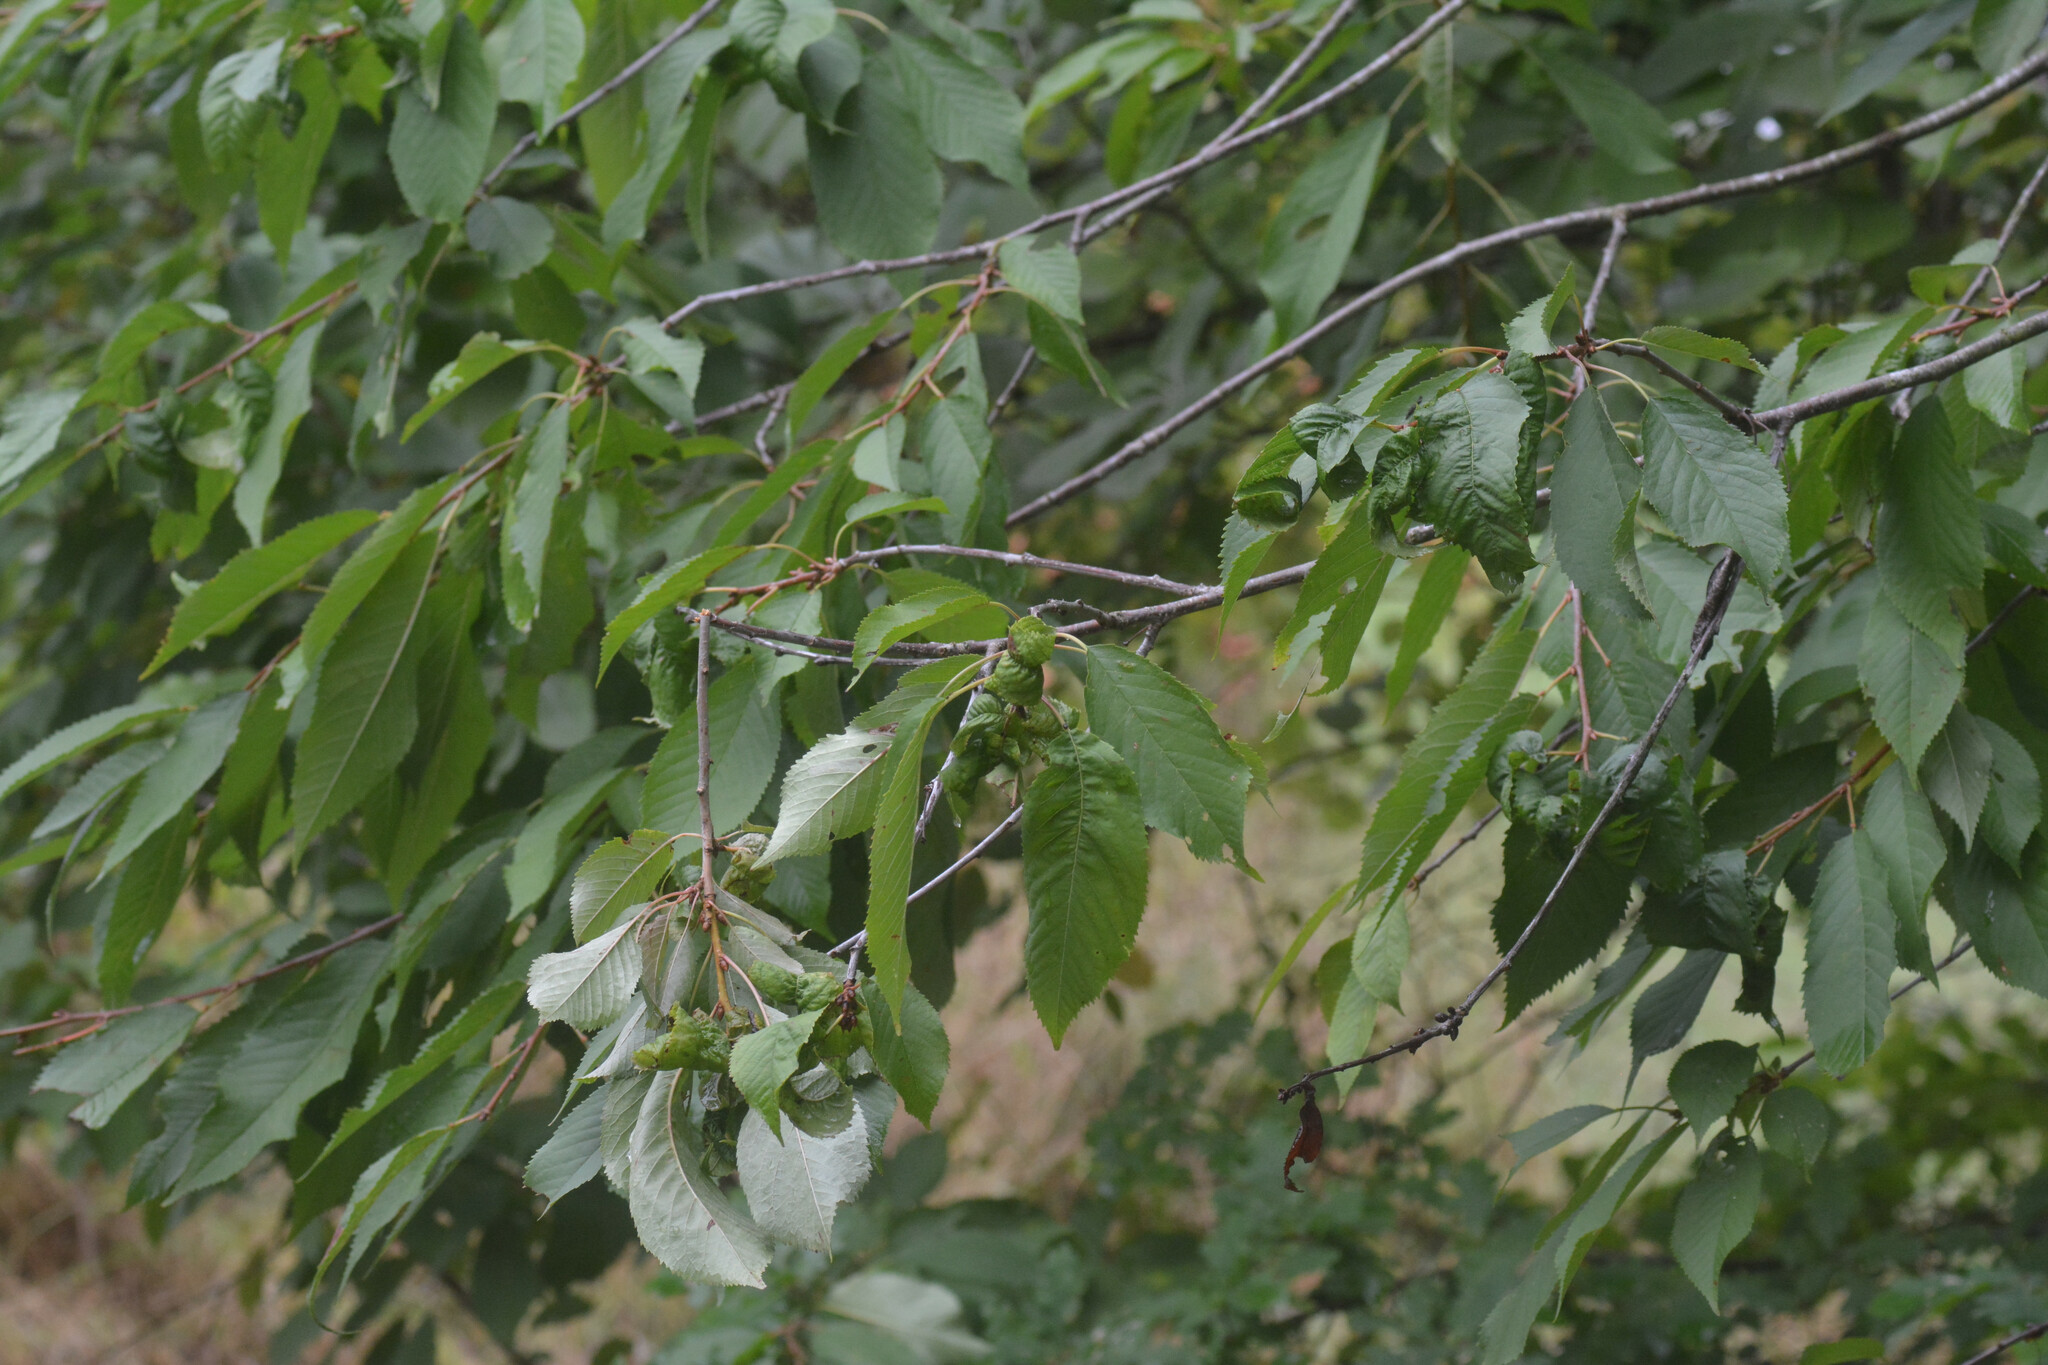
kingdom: Plantae
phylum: Tracheophyta
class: Magnoliopsida
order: Rosales
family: Rosaceae
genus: Prunus
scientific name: Prunus avium
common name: Sweet cherry
